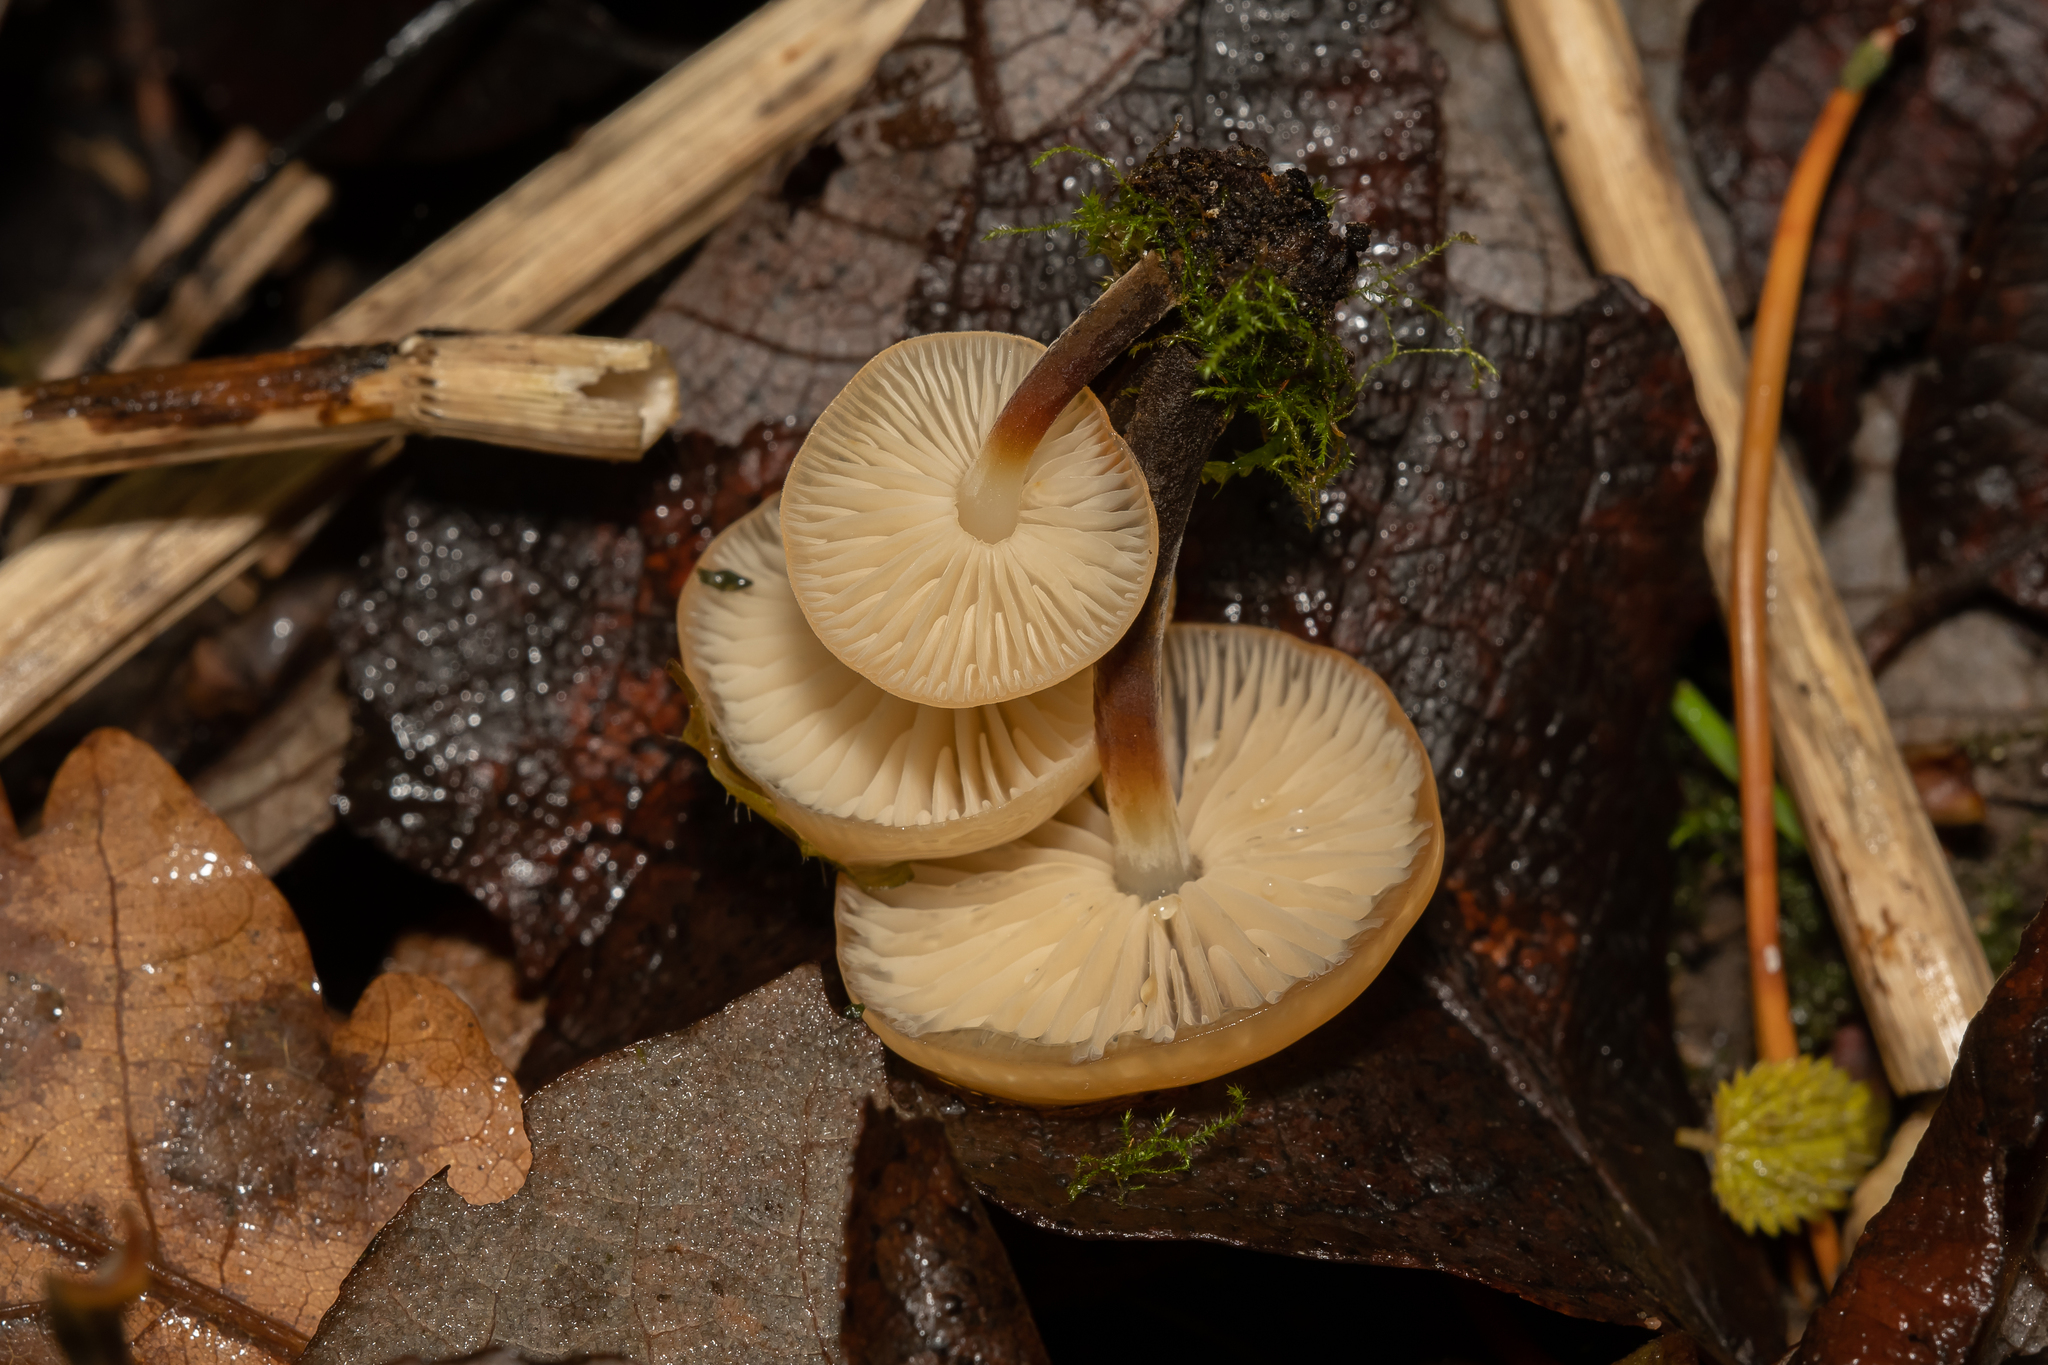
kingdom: Fungi
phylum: Basidiomycota
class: Agaricomycetes
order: Agaricales
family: Physalacriaceae
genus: Flammulina
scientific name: Flammulina
